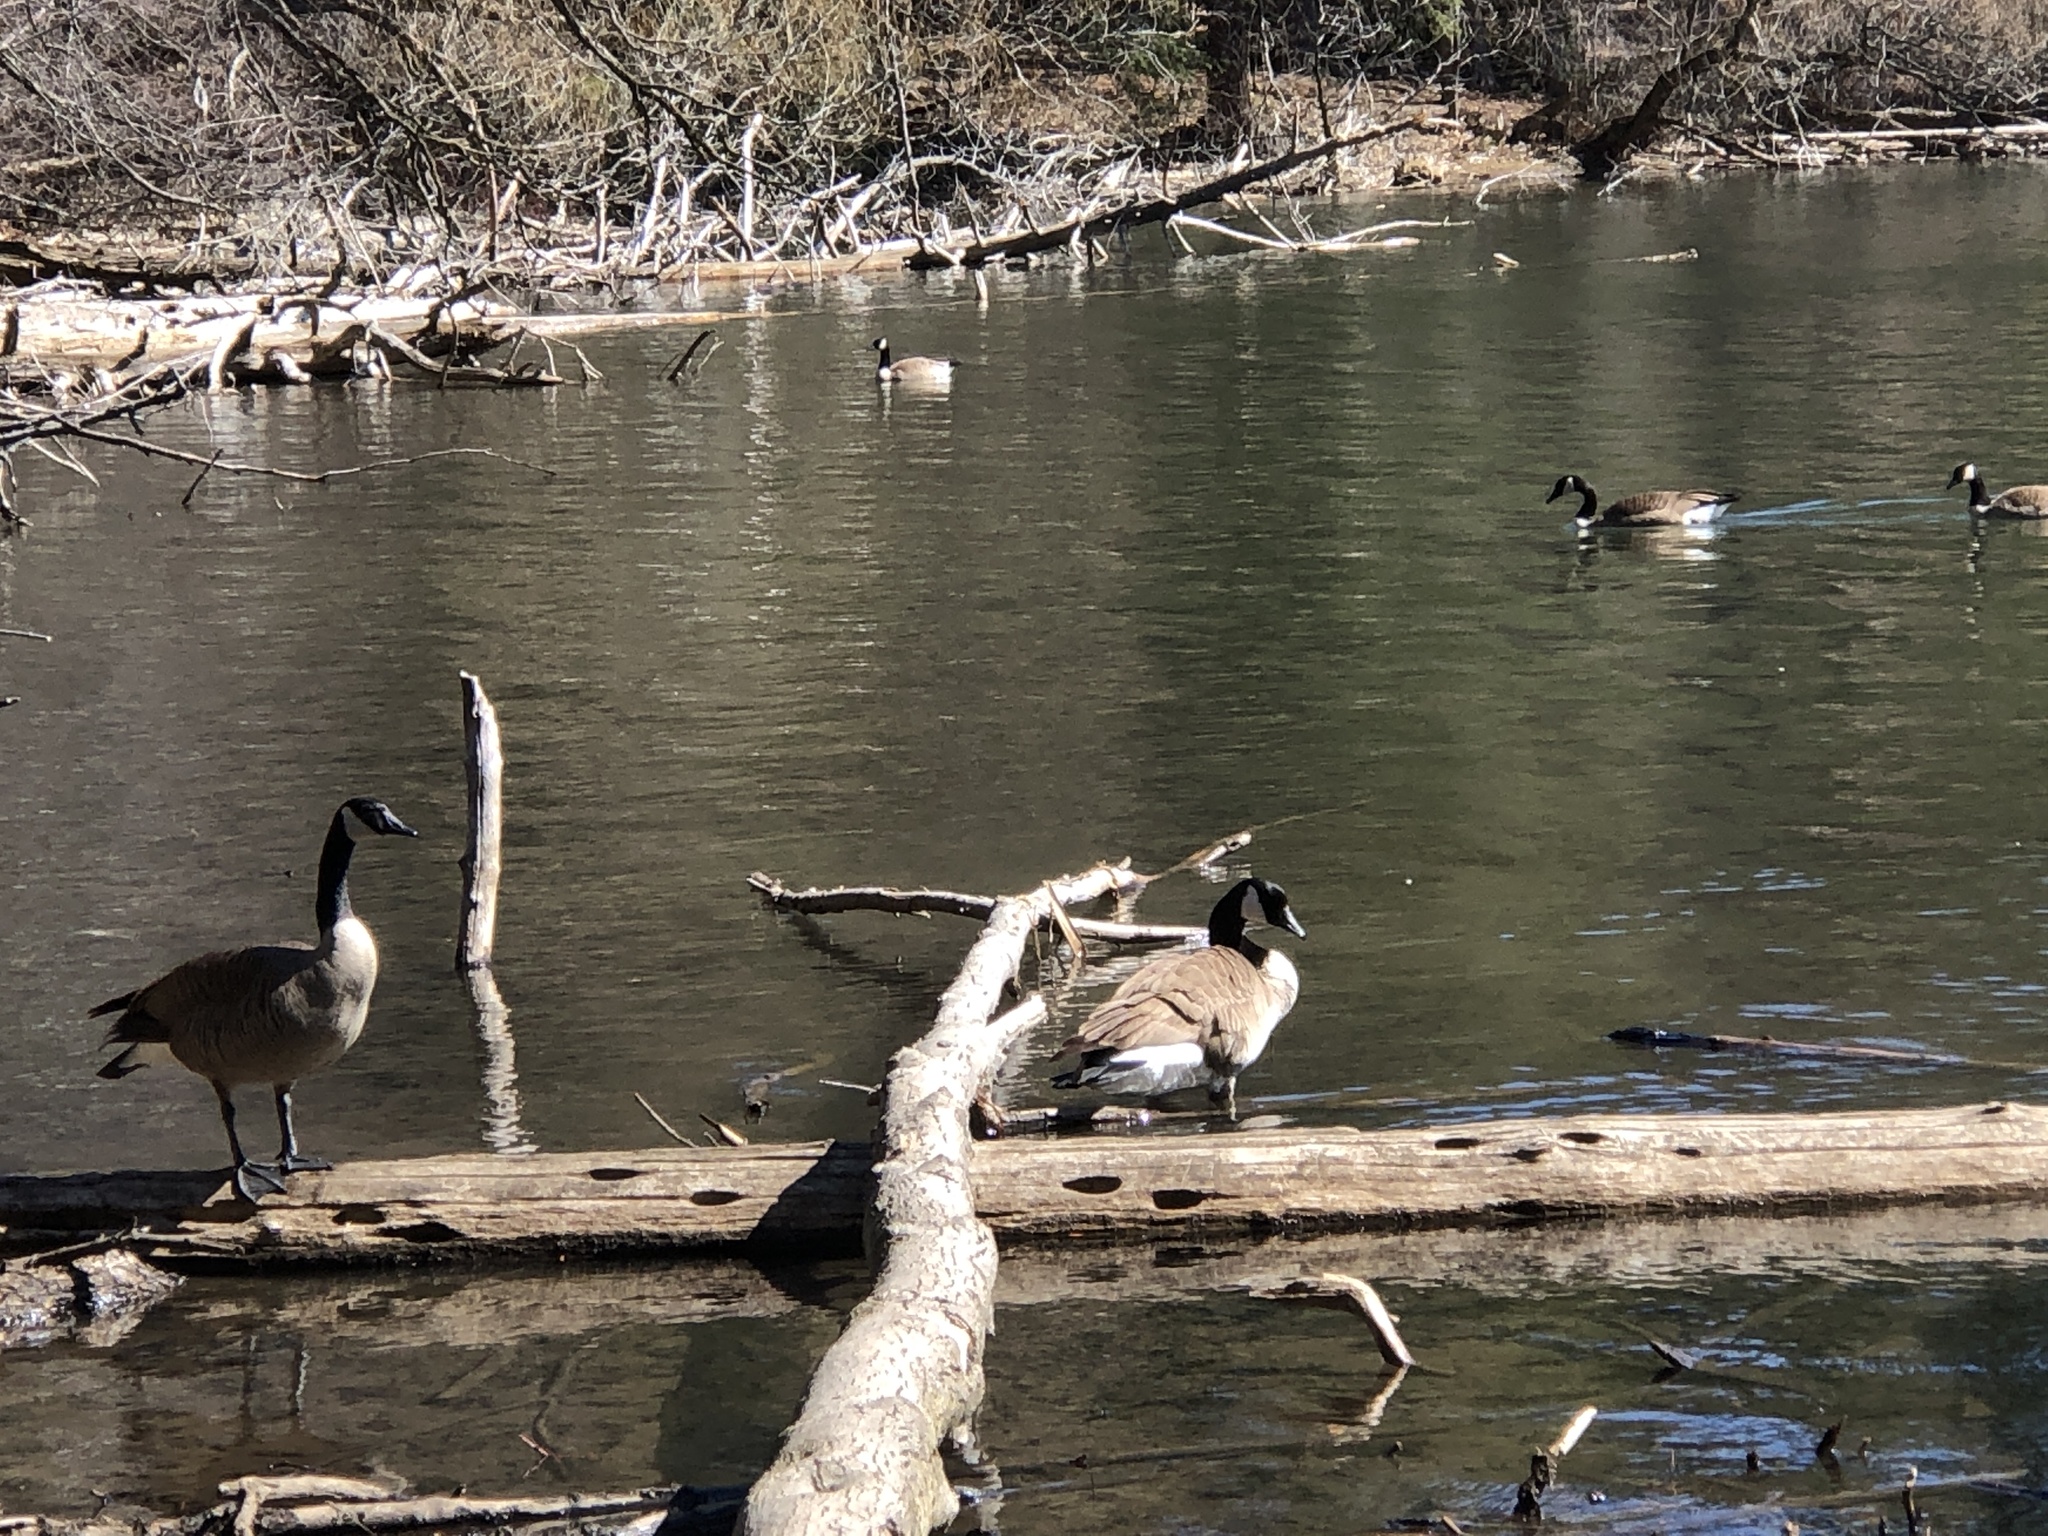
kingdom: Animalia
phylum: Chordata
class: Aves
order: Anseriformes
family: Anatidae
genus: Branta
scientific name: Branta canadensis
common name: Canada goose
